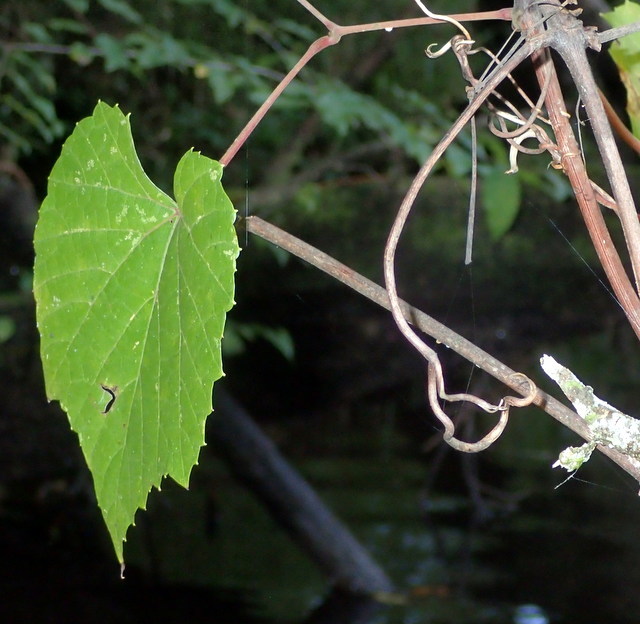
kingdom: Plantae
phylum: Tracheophyta
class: Magnoliopsida
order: Vitales
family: Vitaceae
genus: Vitis
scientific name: Vitis rotundifolia
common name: Muscadine grape
